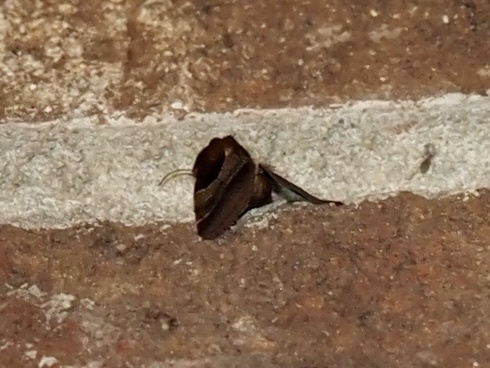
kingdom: Animalia
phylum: Arthropoda
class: Insecta
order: Lepidoptera
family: Noctuidae
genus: Schinia
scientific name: Schinia arcigera
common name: Arcigera flower moth
